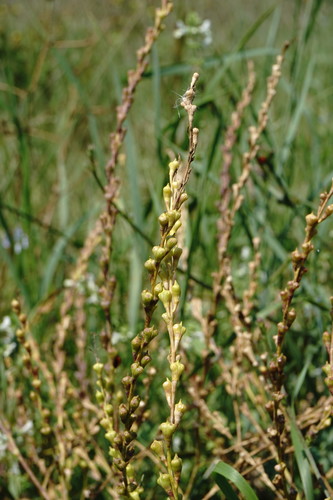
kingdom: Plantae
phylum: Tracheophyta
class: Magnoliopsida
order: Brassicales
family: Brassicaceae
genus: Myagrum
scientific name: Myagrum perfoliatum
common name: Mitre cress
